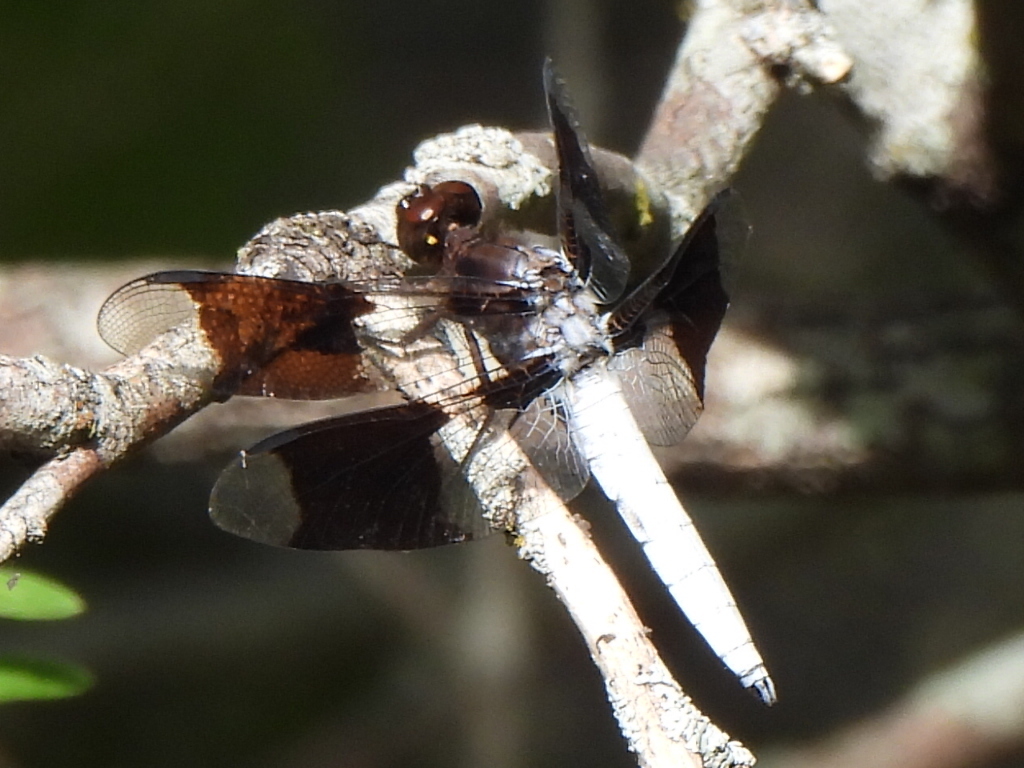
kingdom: Animalia
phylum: Arthropoda
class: Insecta
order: Odonata
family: Libellulidae
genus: Plathemis
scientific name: Plathemis lydia
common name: Common whitetail
